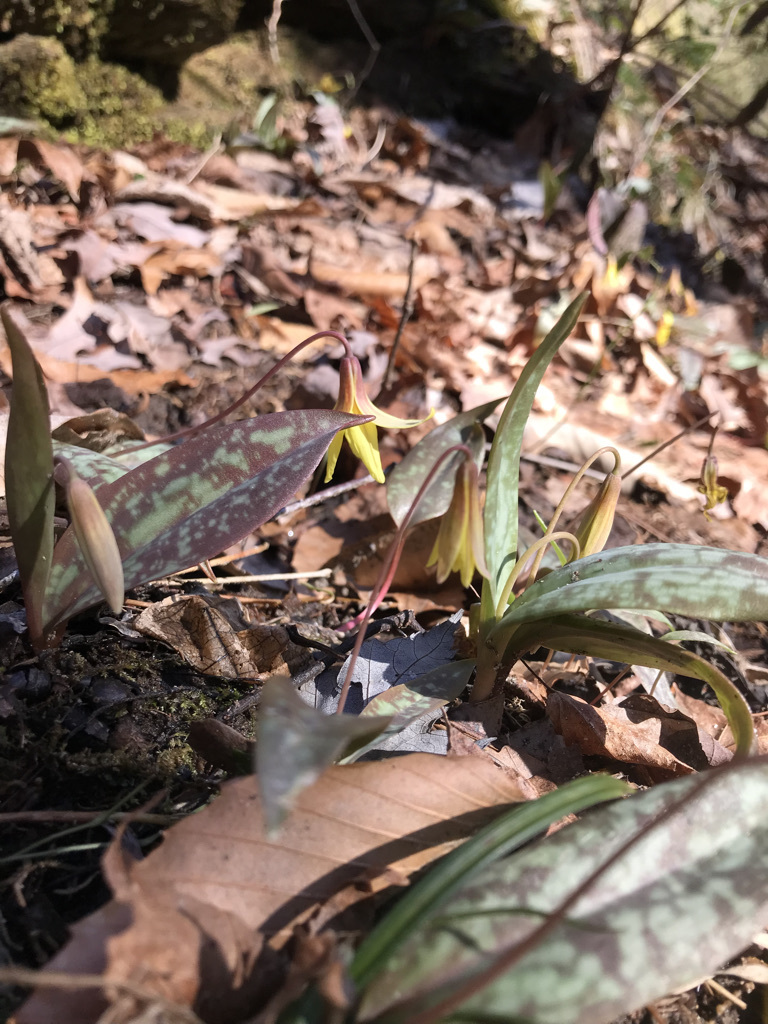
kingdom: Plantae
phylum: Tracheophyta
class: Liliopsida
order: Liliales
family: Liliaceae
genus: Erythronium
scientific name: Erythronium umbilicatum
